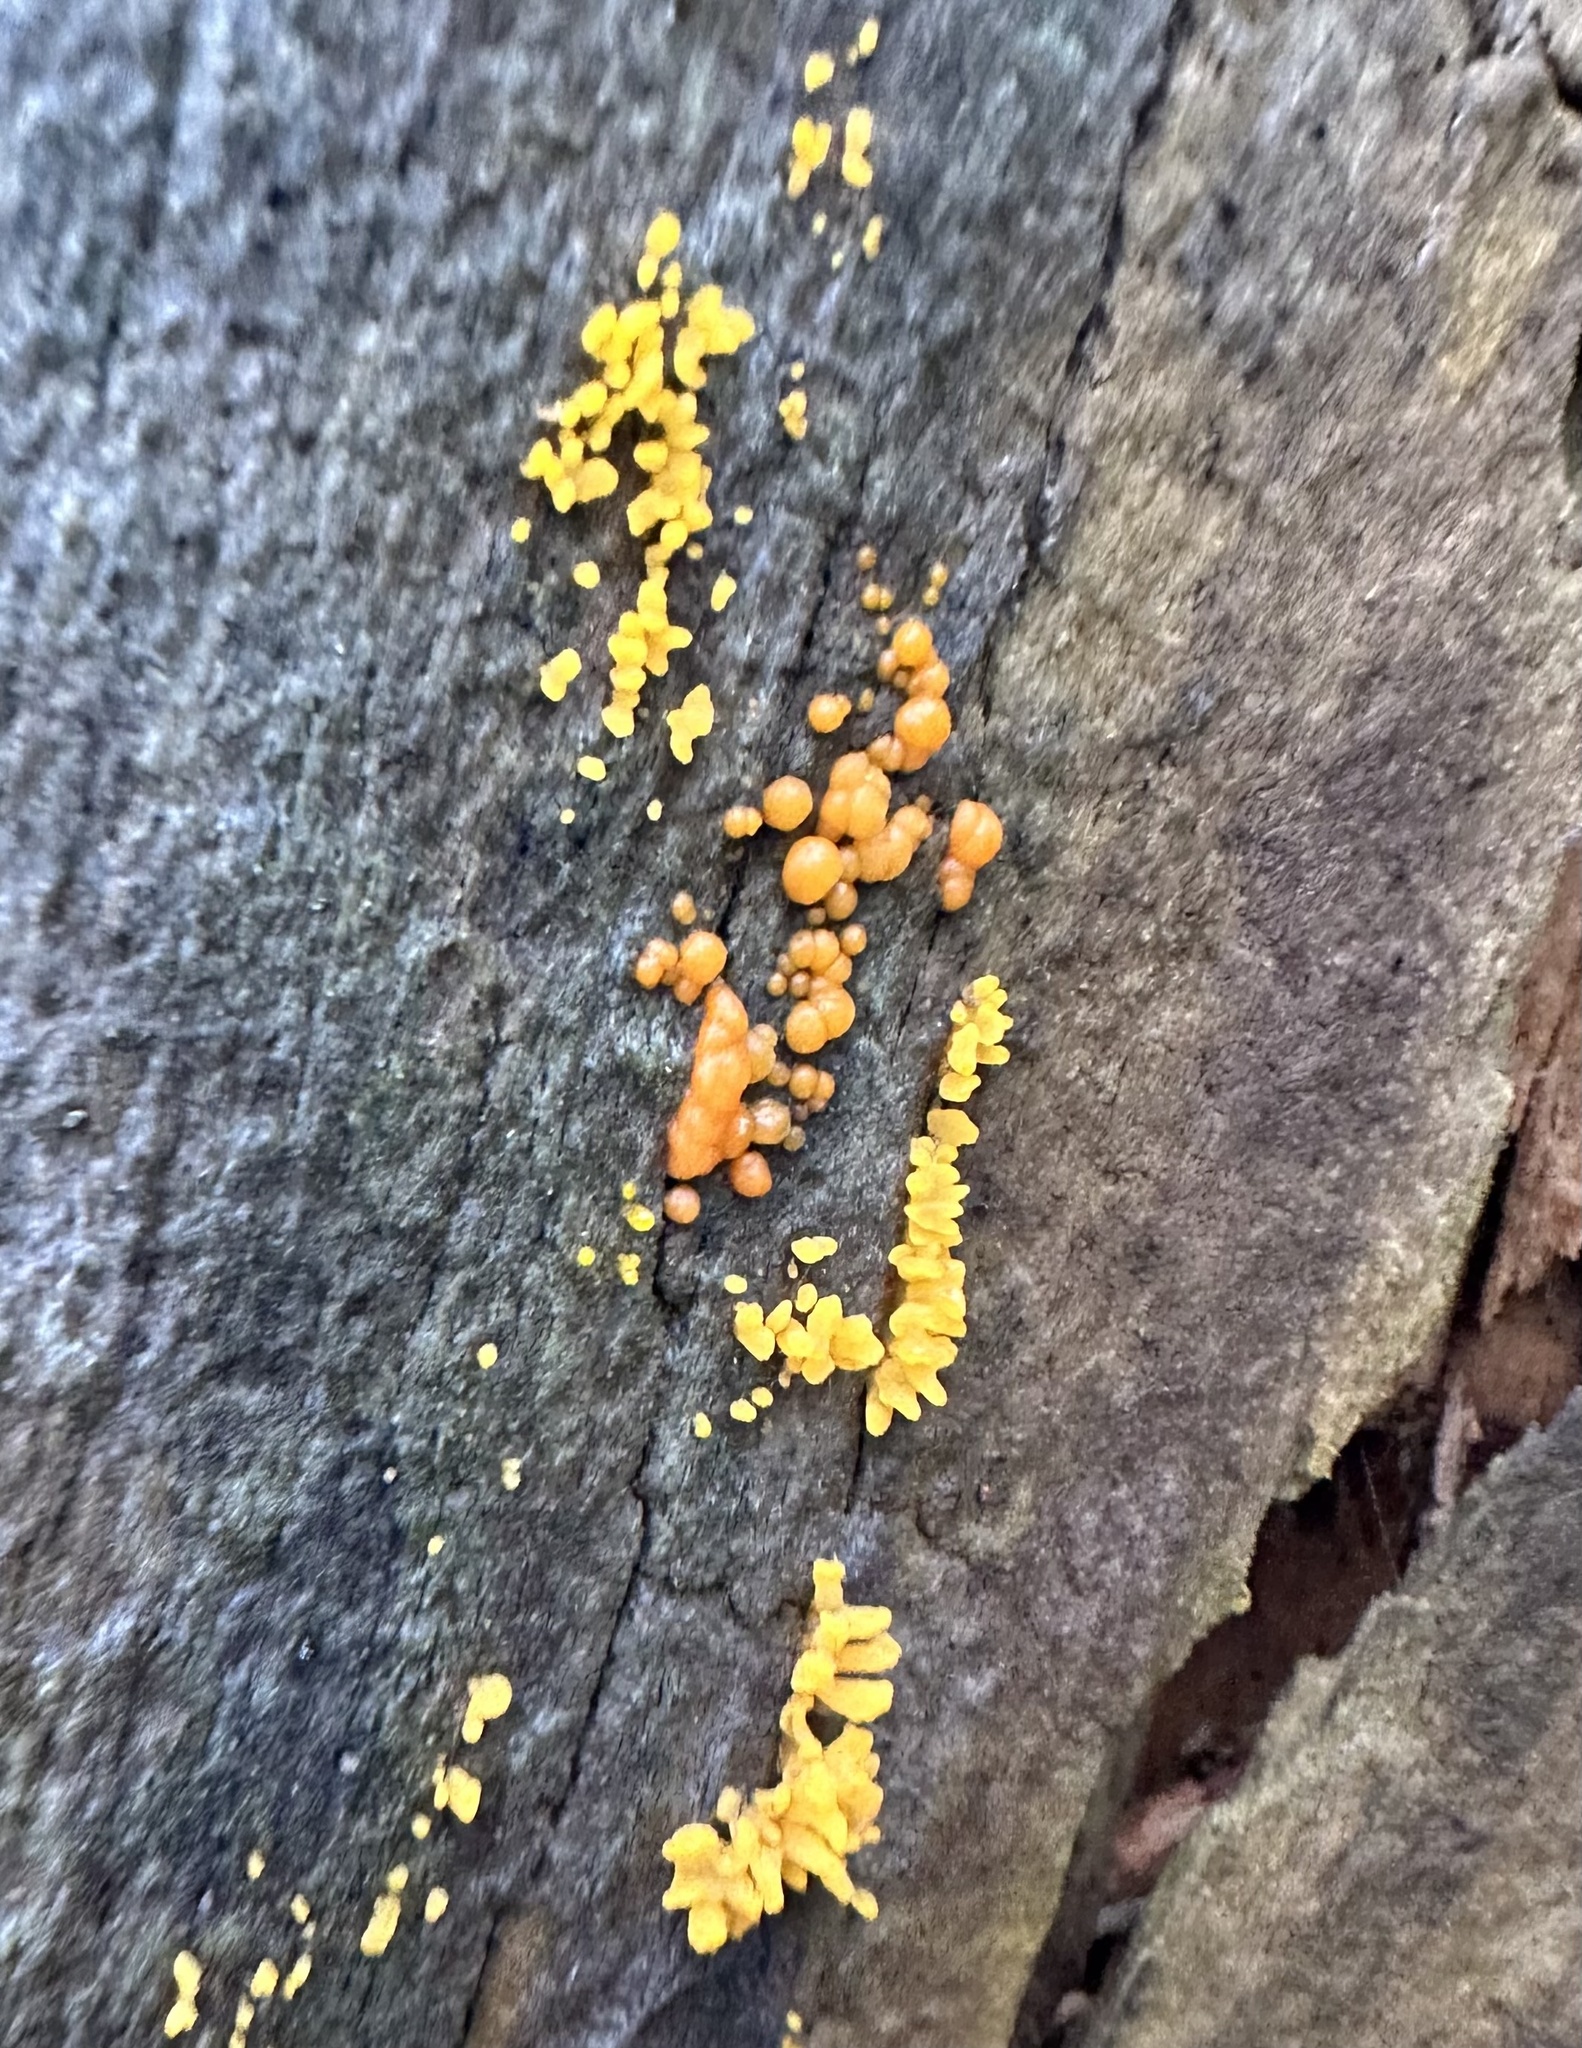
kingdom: Fungi
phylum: Basidiomycota
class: Dacrymycetes
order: Dacrymycetales
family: Dacrymycetaceae
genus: Calocera
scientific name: Calocera cornea
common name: Small stagshorn
